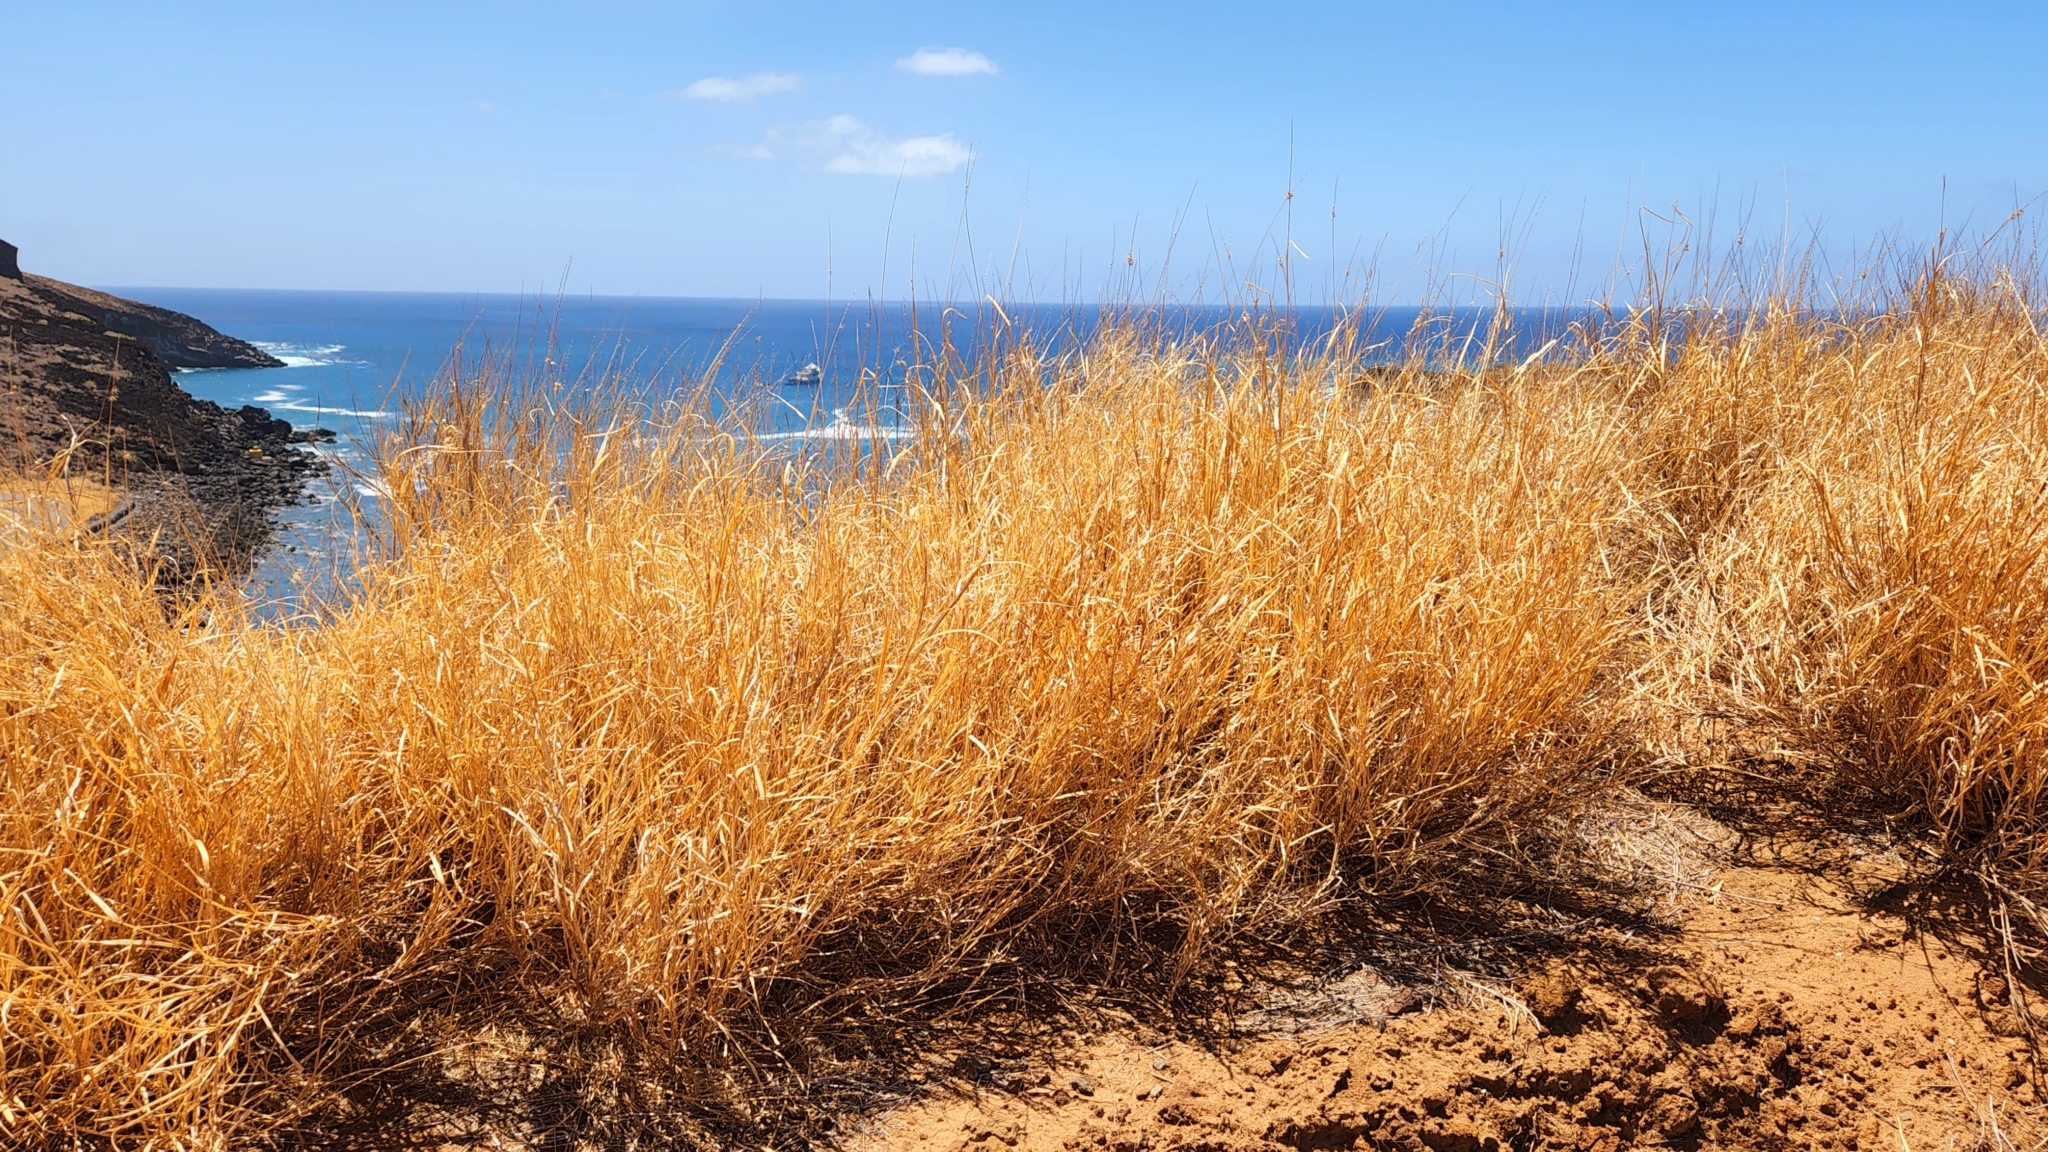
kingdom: Plantae
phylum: Tracheophyta
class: Liliopsida
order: Poales
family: Poaceae
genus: Cenchrus
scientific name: Cenchrus ciliaris
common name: Buffelgrass
